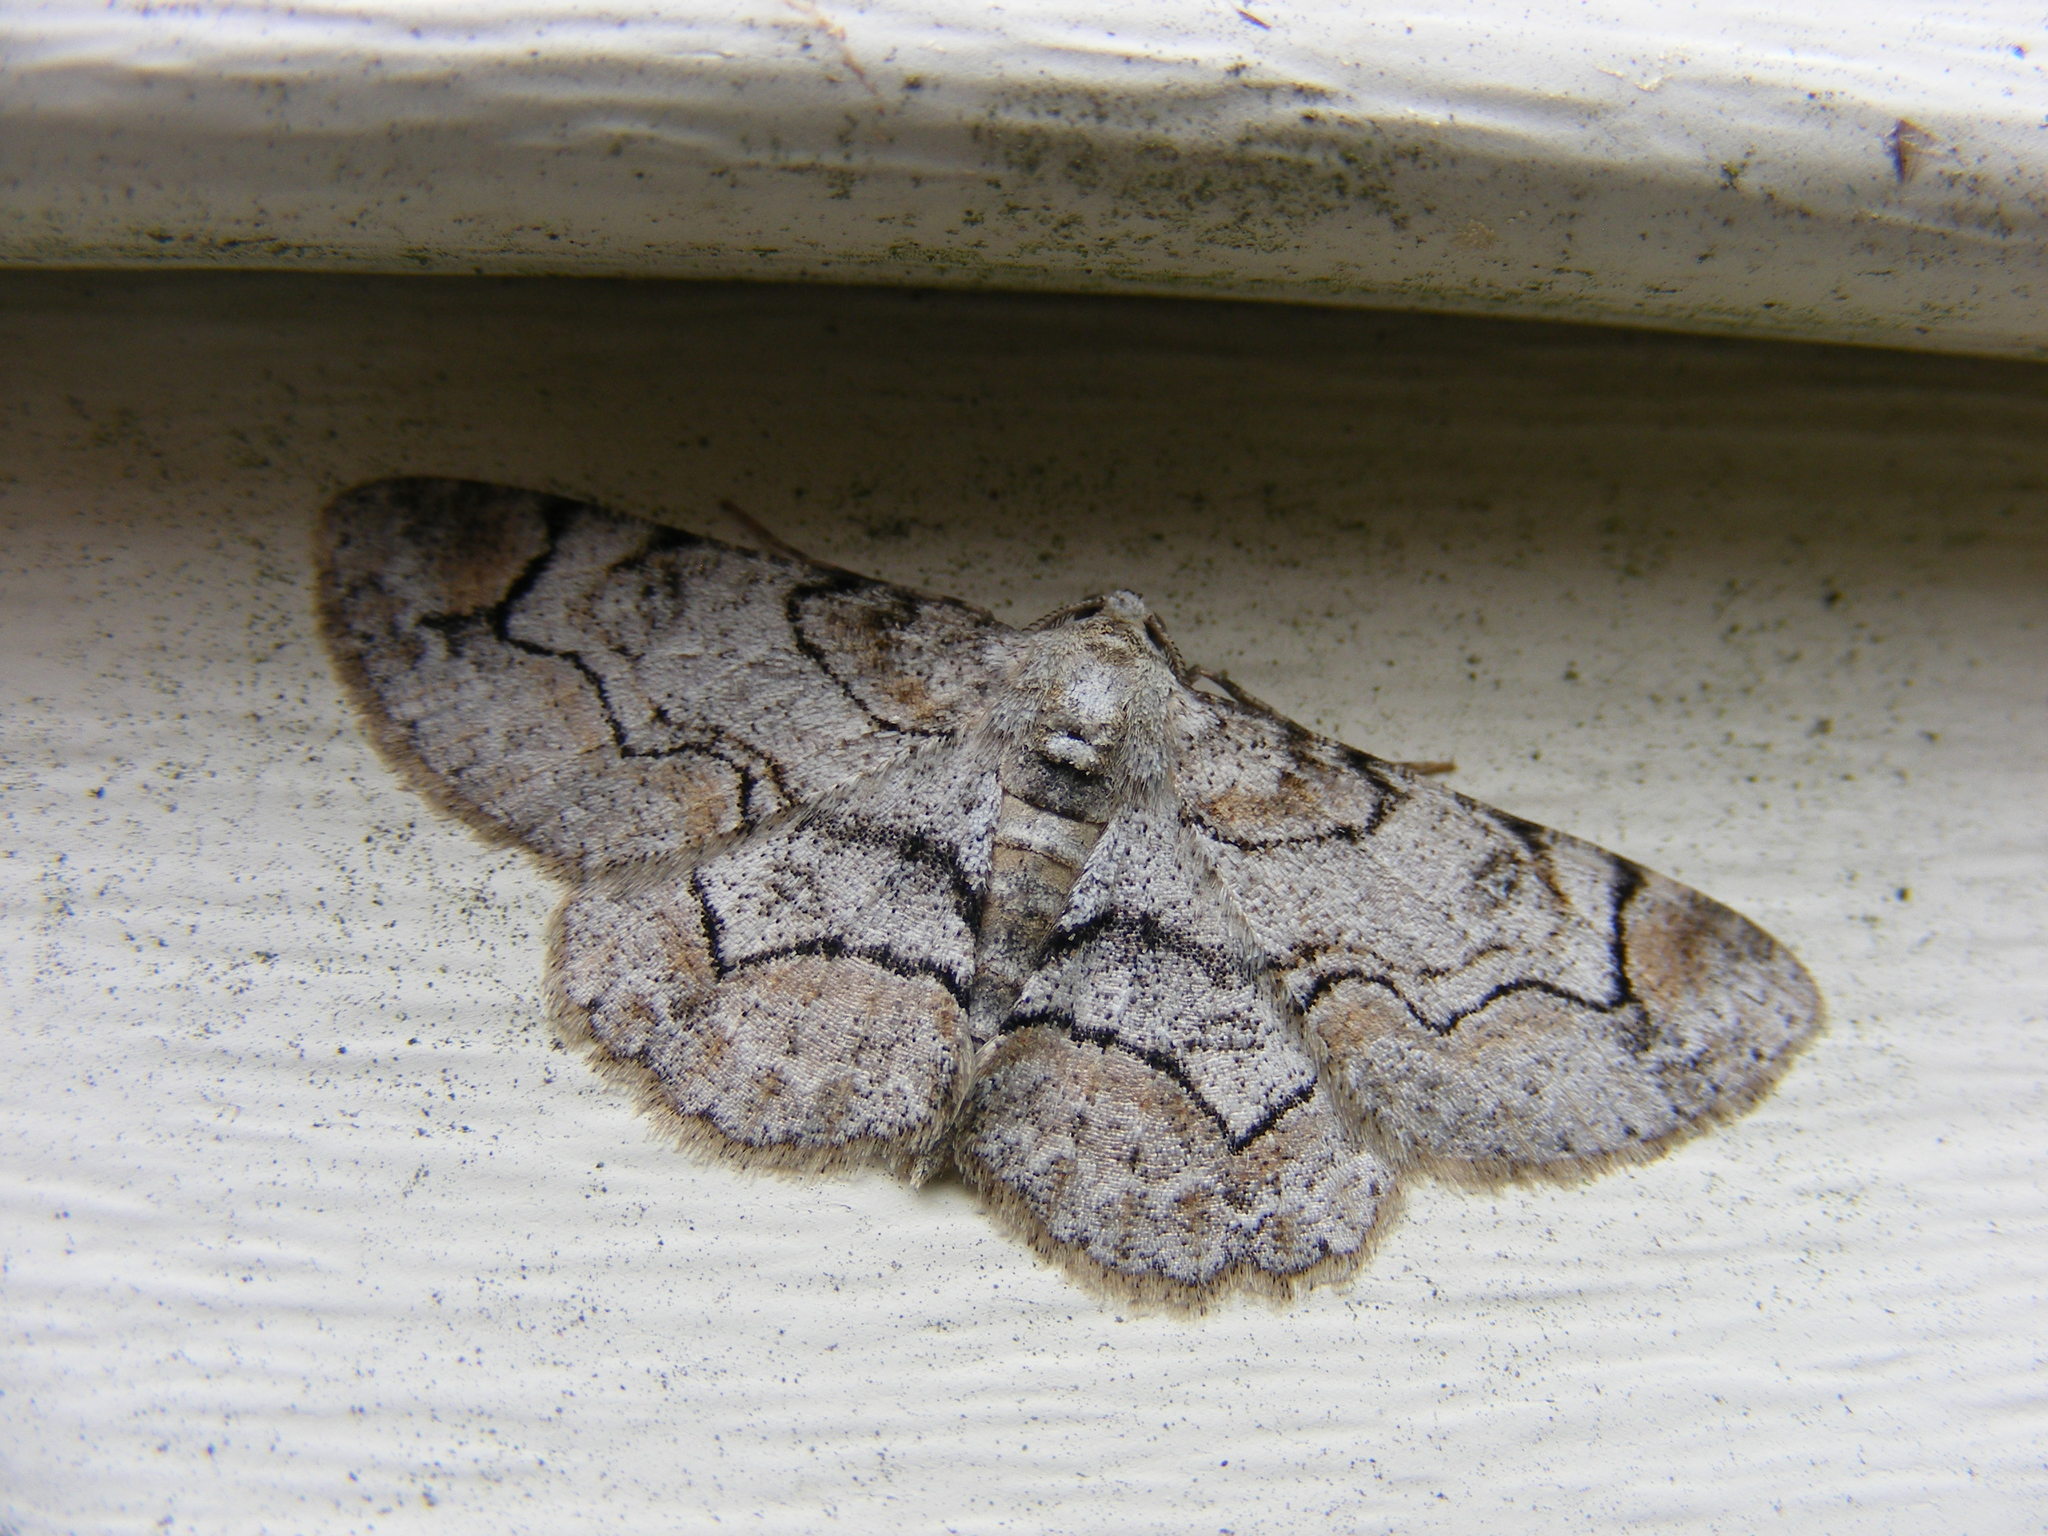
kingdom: Animalia
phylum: Arthropoda
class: Insecta
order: Lepidoptera
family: Geometridae
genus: Iridopsis
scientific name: Iridopsis larvaria
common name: Bent-line gray
